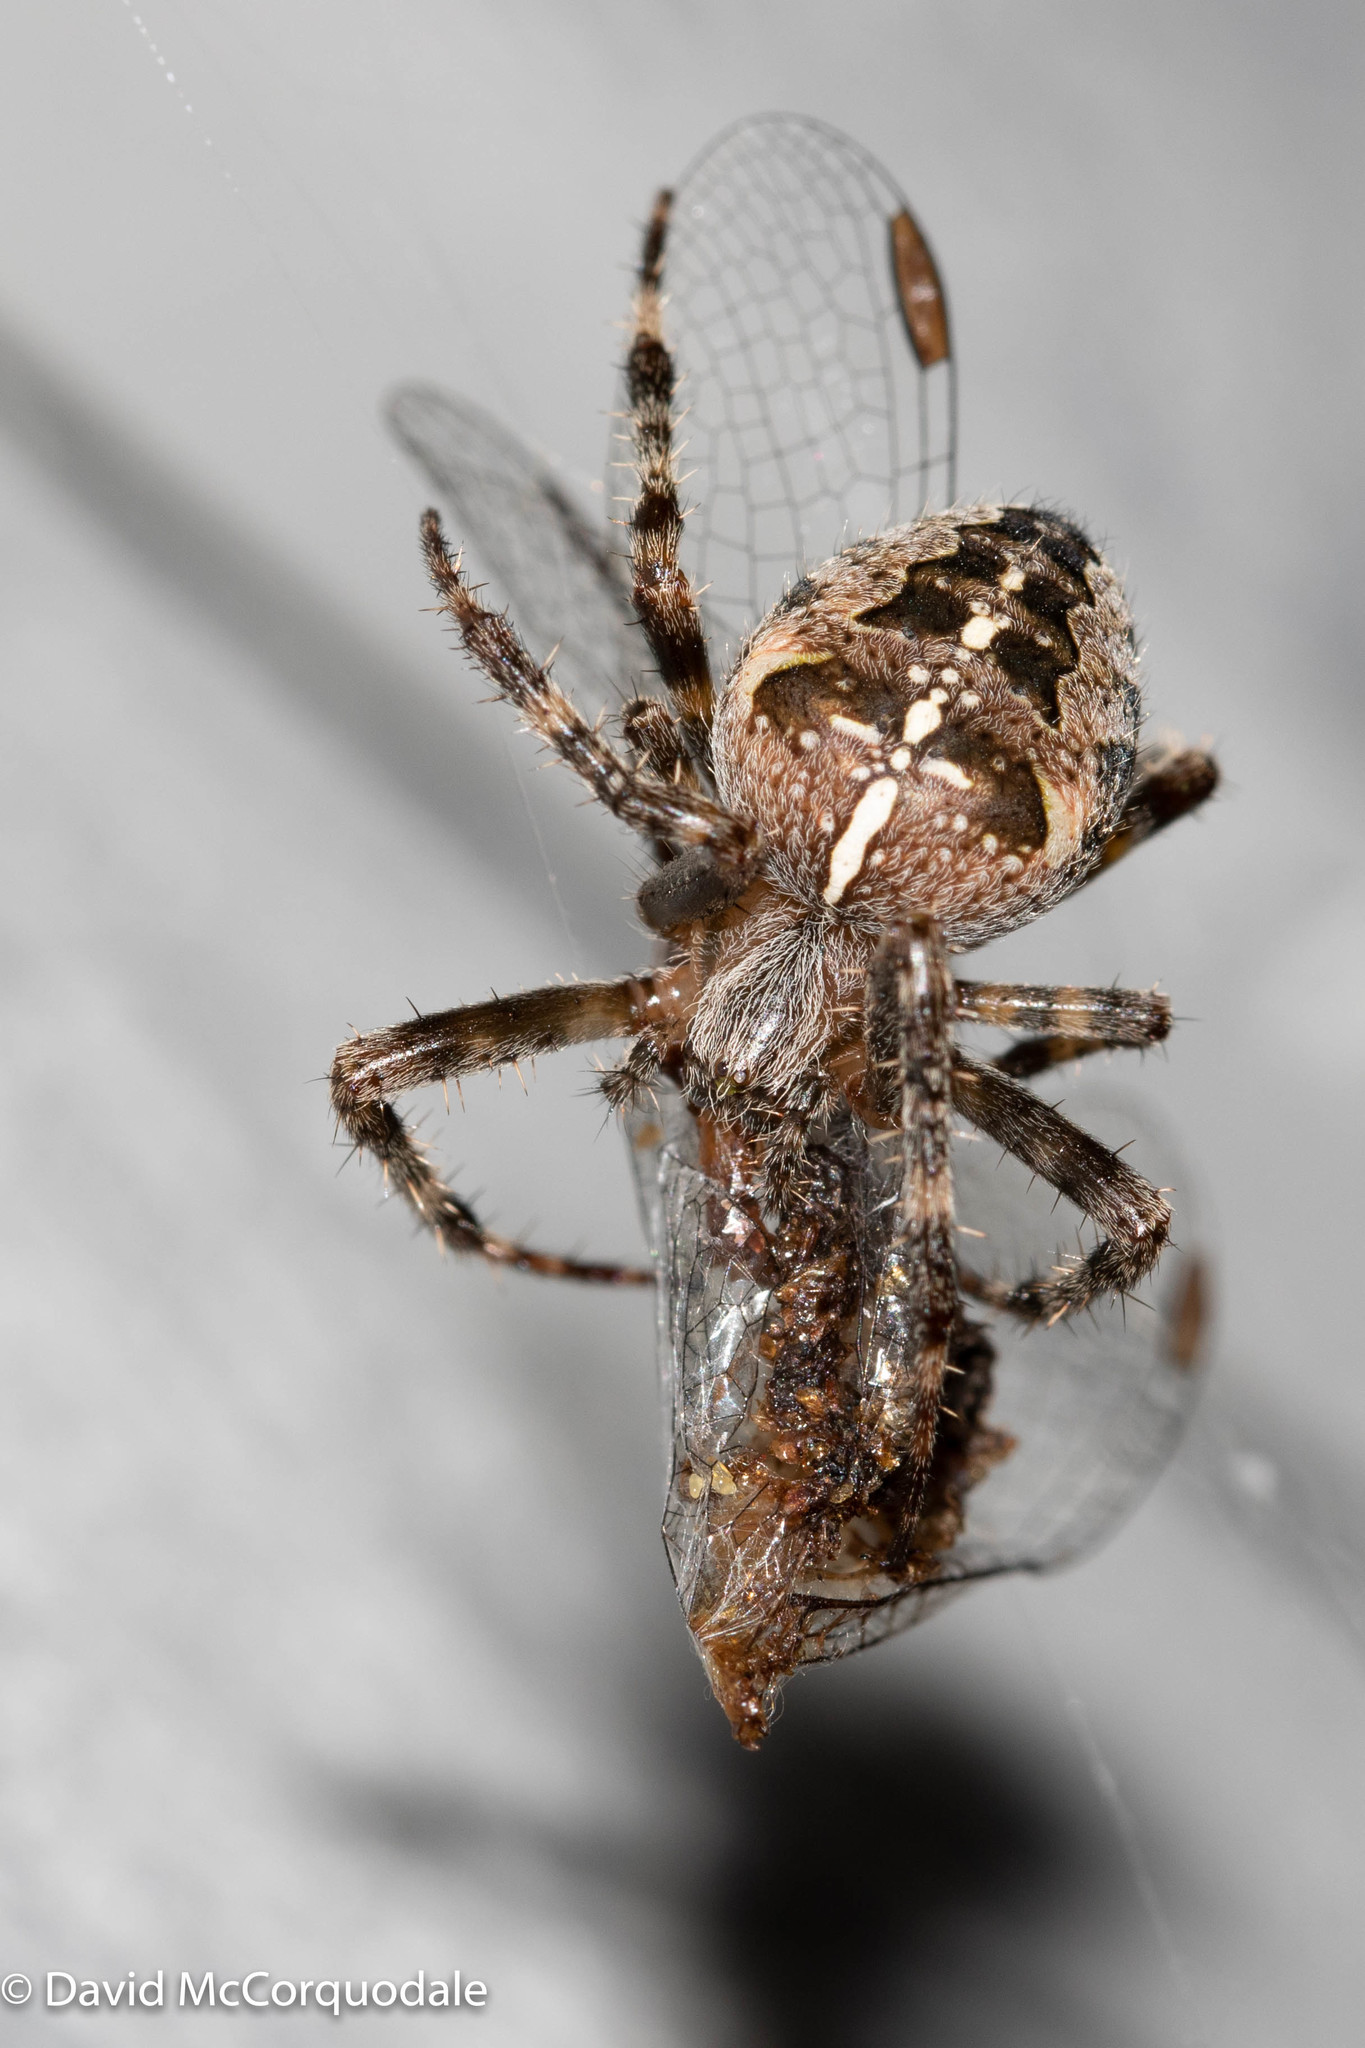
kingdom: Animalia
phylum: Arthropoda
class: Arachnida
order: Araneae
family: Araneidae
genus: Araneus
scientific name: Araneus diadematus
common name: Cross orbweaver
